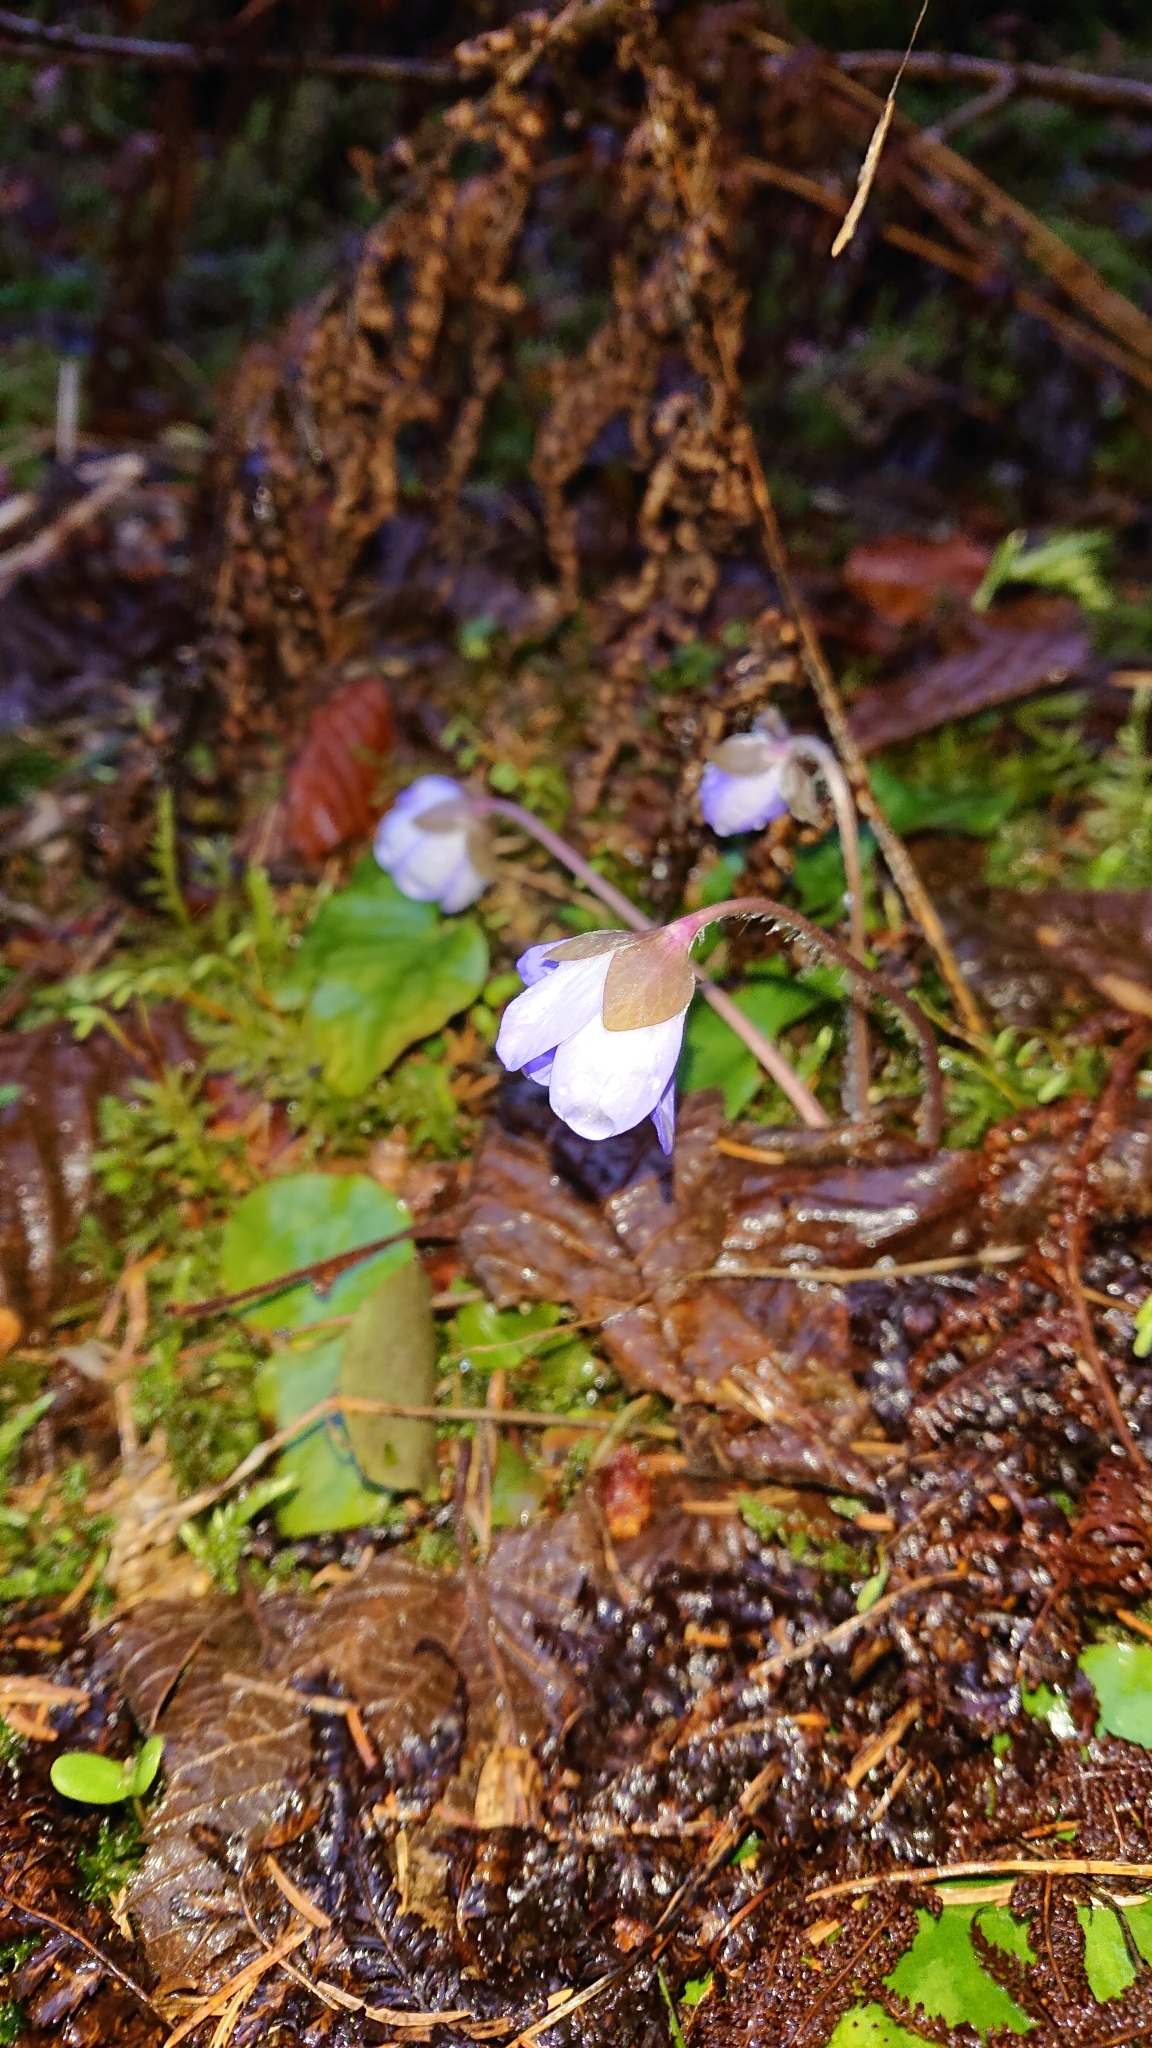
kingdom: Plantae
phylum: Tracheophyta
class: Magnoliopsida
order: Ranunculales
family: Ranunculaceae
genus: Hepatica
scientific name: Hepatica nobilis
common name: Liverleaf
